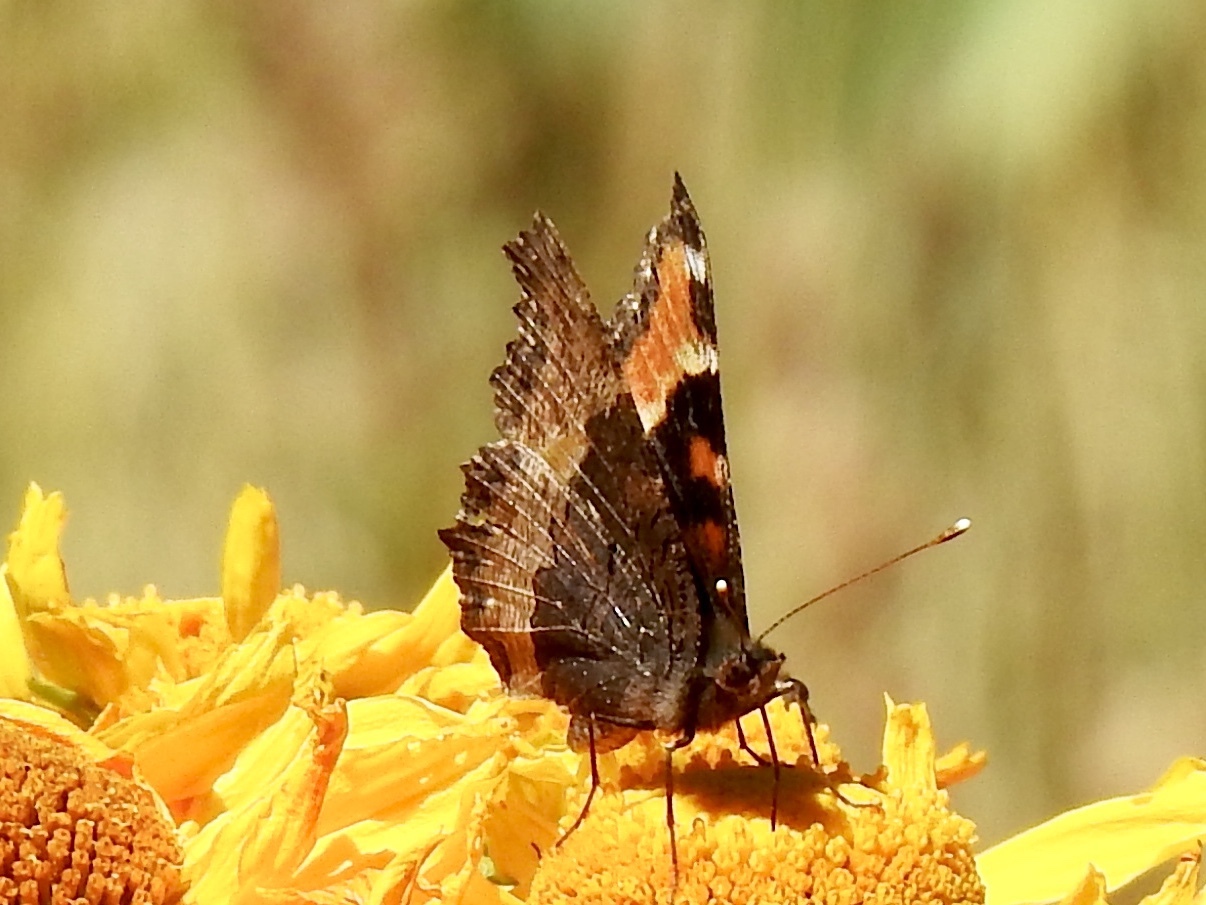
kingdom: Animalia
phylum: Arthropoda
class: Insecta
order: Lepidoptera
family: Nymphalidae
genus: Aglais
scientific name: Aglais milberti
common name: Milbert's tortoiseshell
